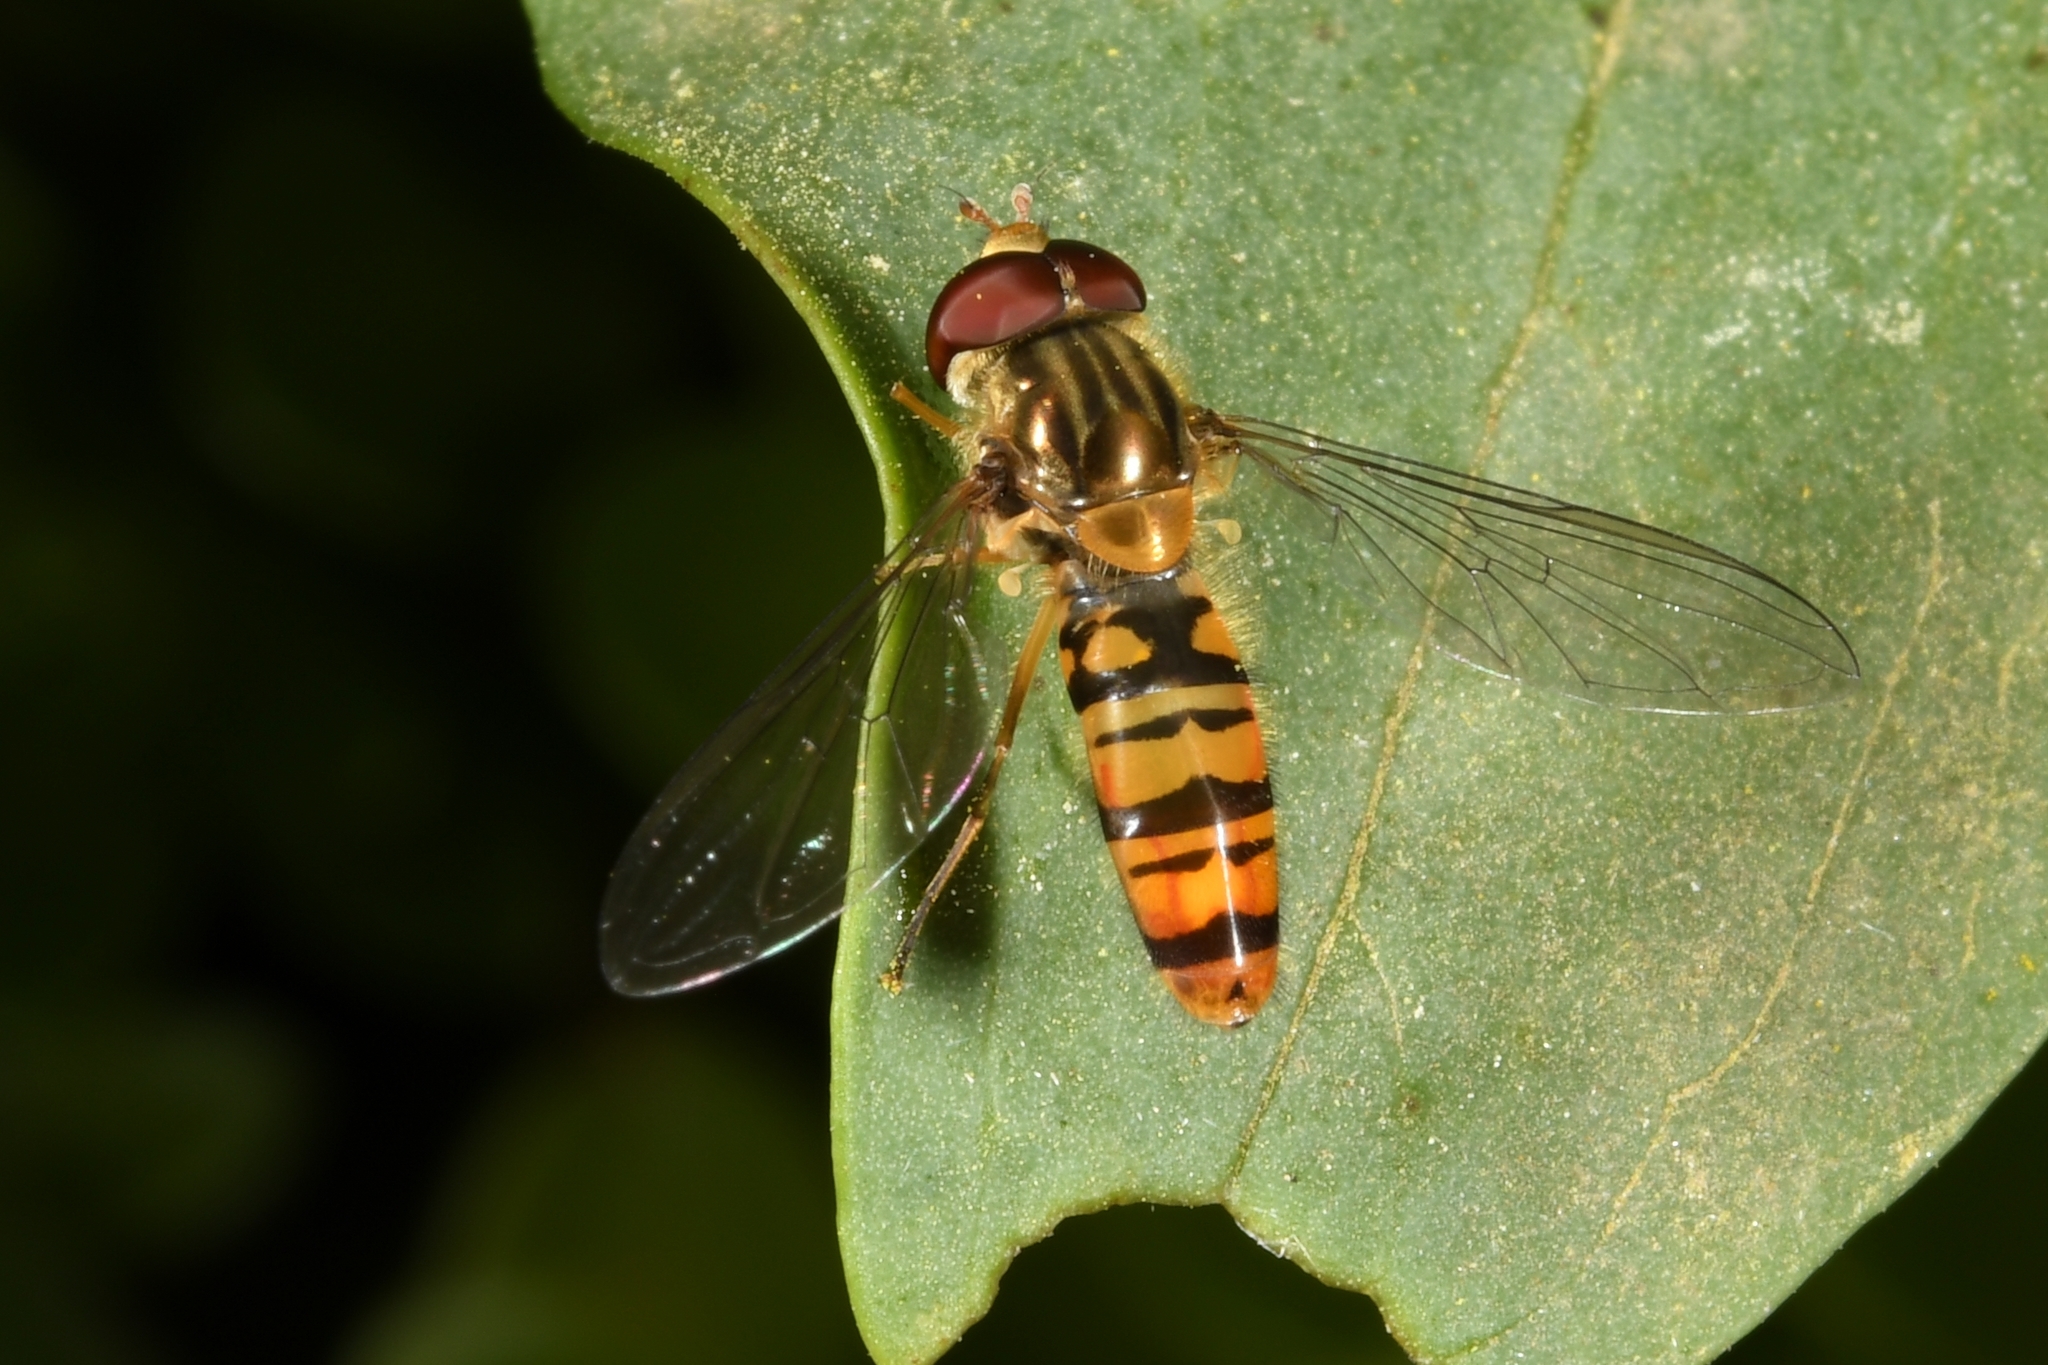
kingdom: Animalia
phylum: Arthropoda
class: Insecta
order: Diptera
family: Syrphidae
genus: Episyrphus
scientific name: Episyrphus balteatus
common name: Marmalade hoverfly
